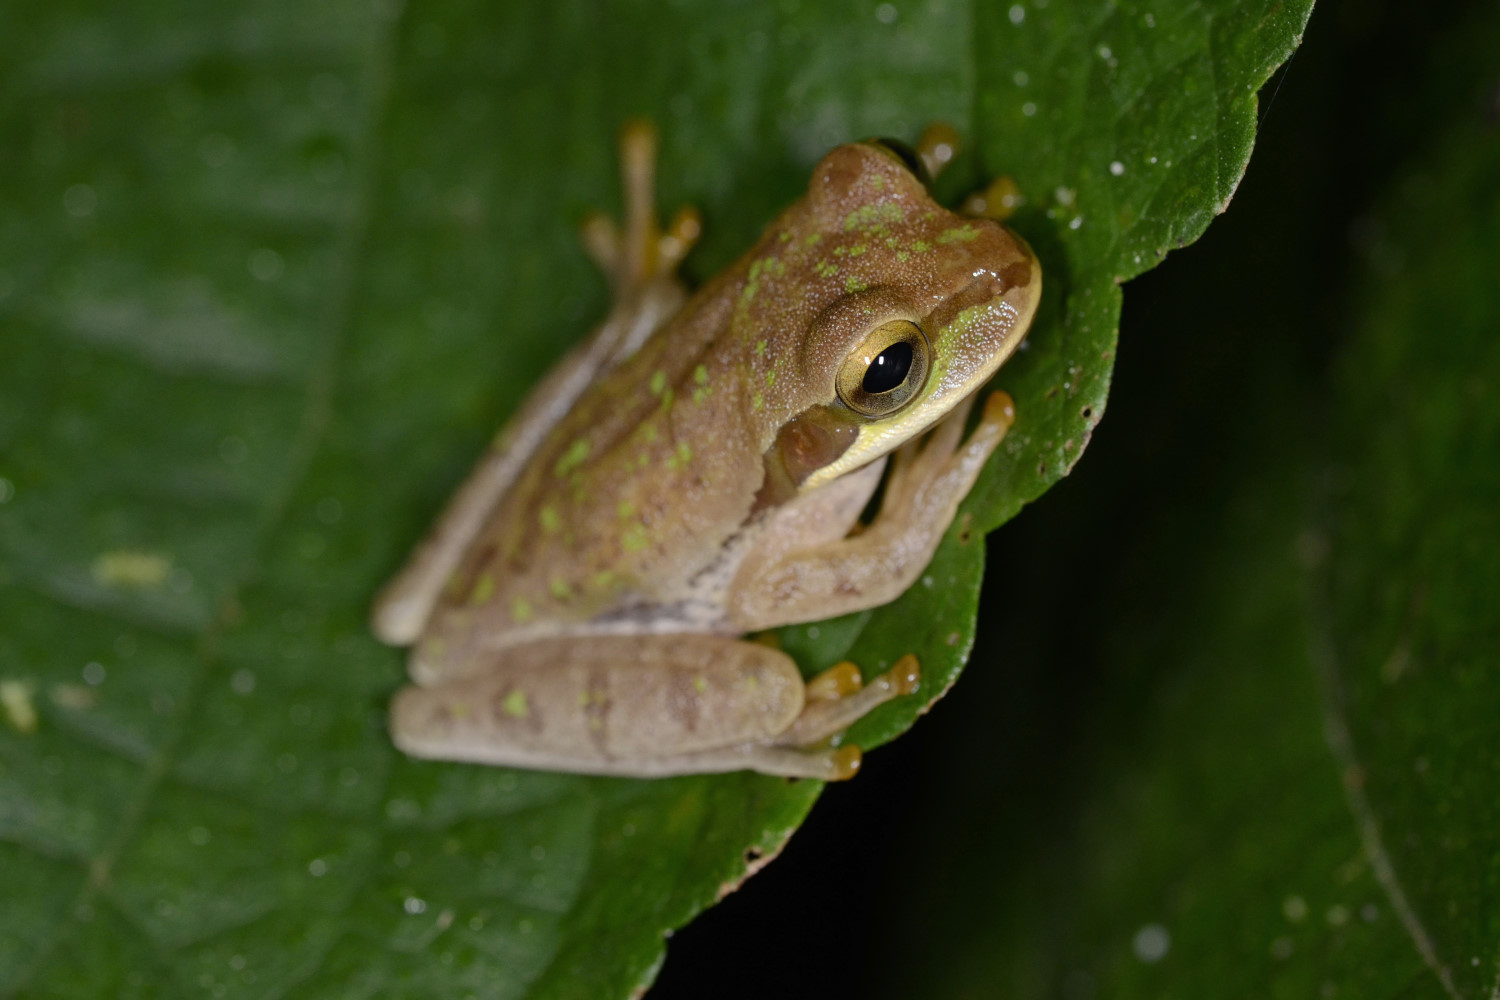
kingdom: Animalia
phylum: Chordata
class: Amphibia
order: Anura
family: Hylidae
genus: Smilisca
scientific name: Smilisca phaeota
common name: Central american smilisca
